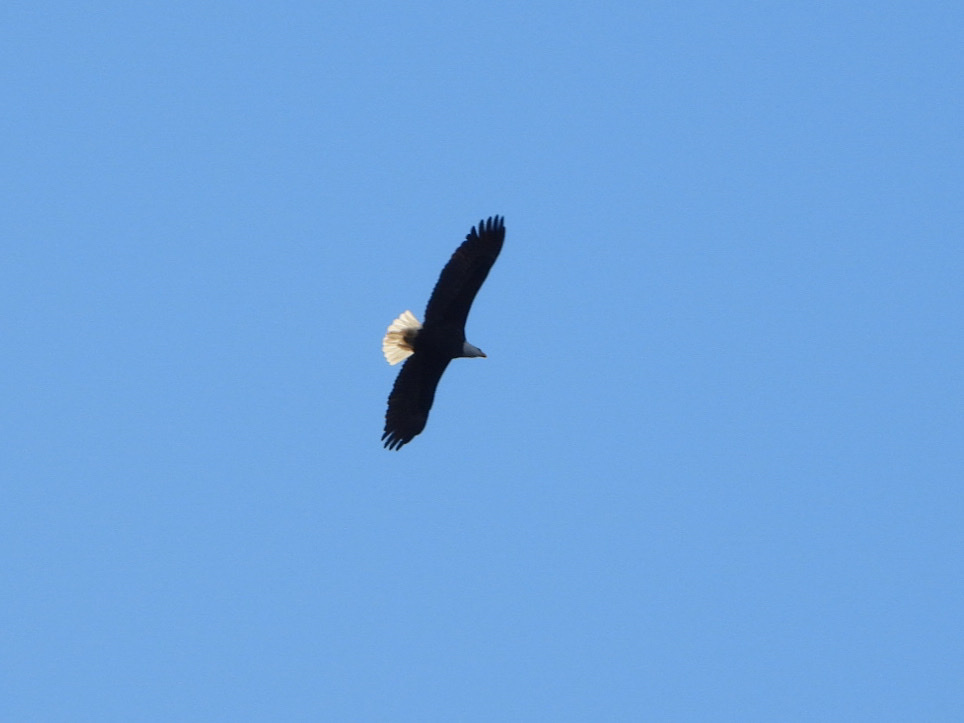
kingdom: Animalia
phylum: Chordata
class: Aves
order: Accipitriformes
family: Accipitridae
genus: Haliaeetus
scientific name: Haliaeetus leucocephalus
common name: Bald eagle
